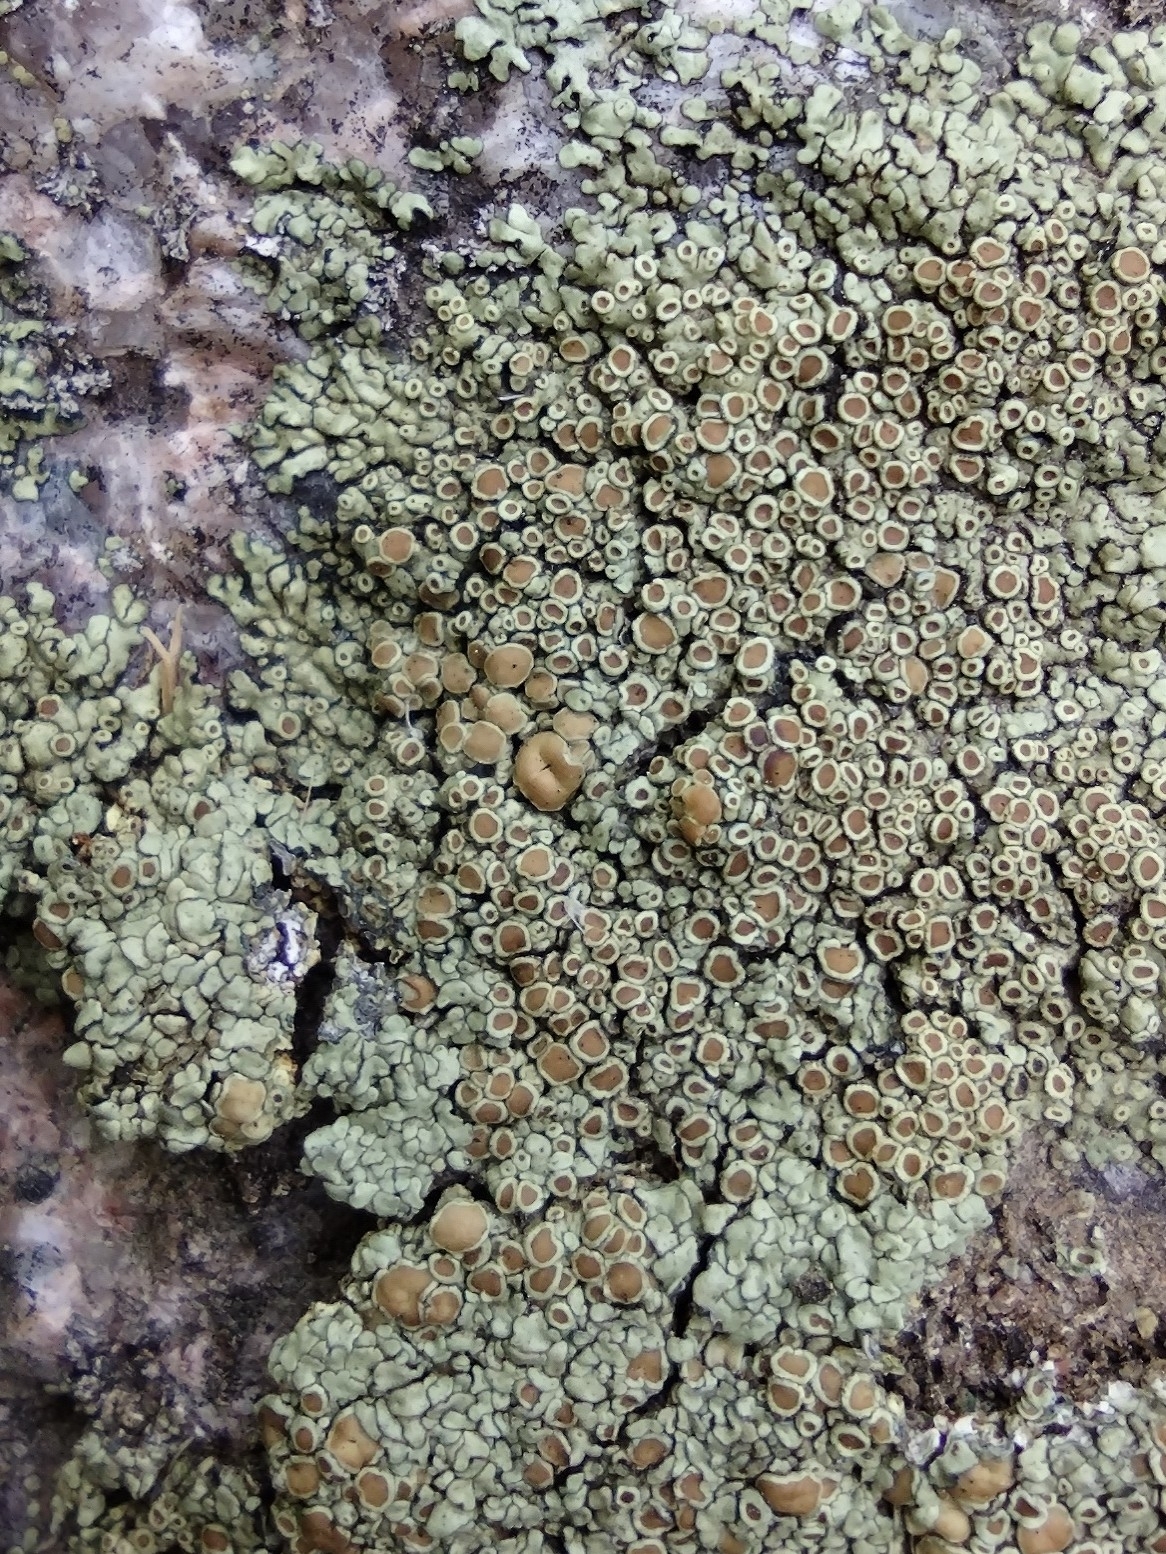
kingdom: Fungi
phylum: Ascomycota
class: Lecanoromycetes
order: Lecanorales
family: Lecanoraceae
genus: Protoparmeliopsis
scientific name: Protoparmeliopsis muralis
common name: Stonewall rim lichen
